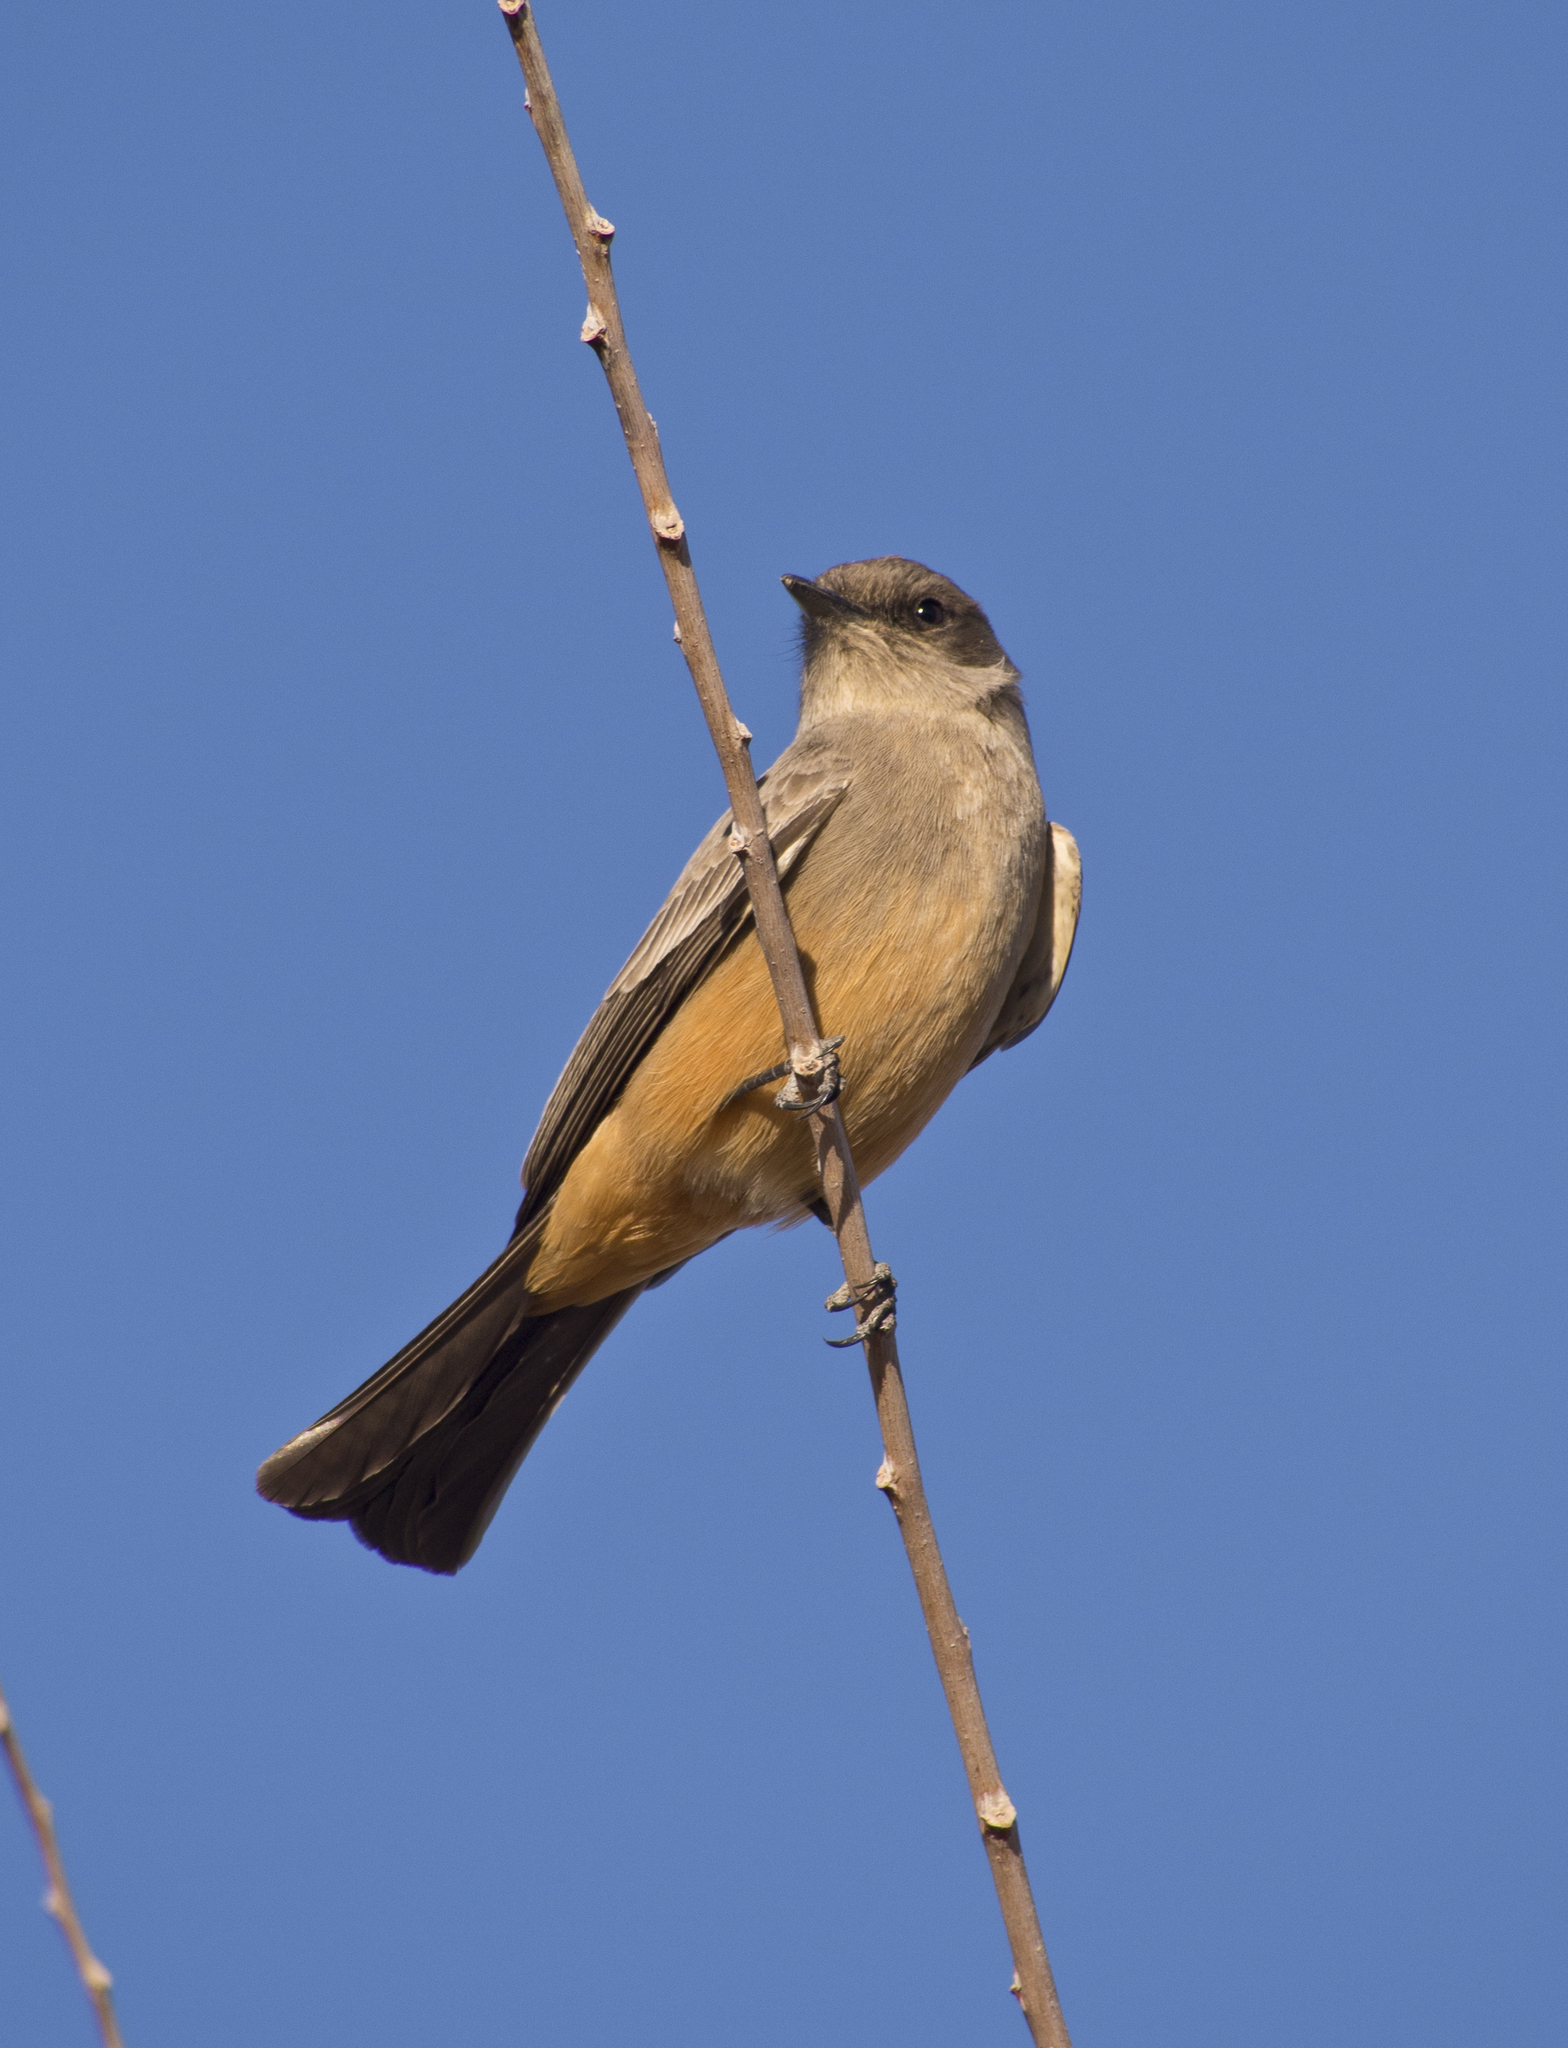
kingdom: Animalia
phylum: Chordata
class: Aves
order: Passeriformes
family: Tyrannidae
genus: Sayornis
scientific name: Sayornis saya
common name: Say's phoebe
